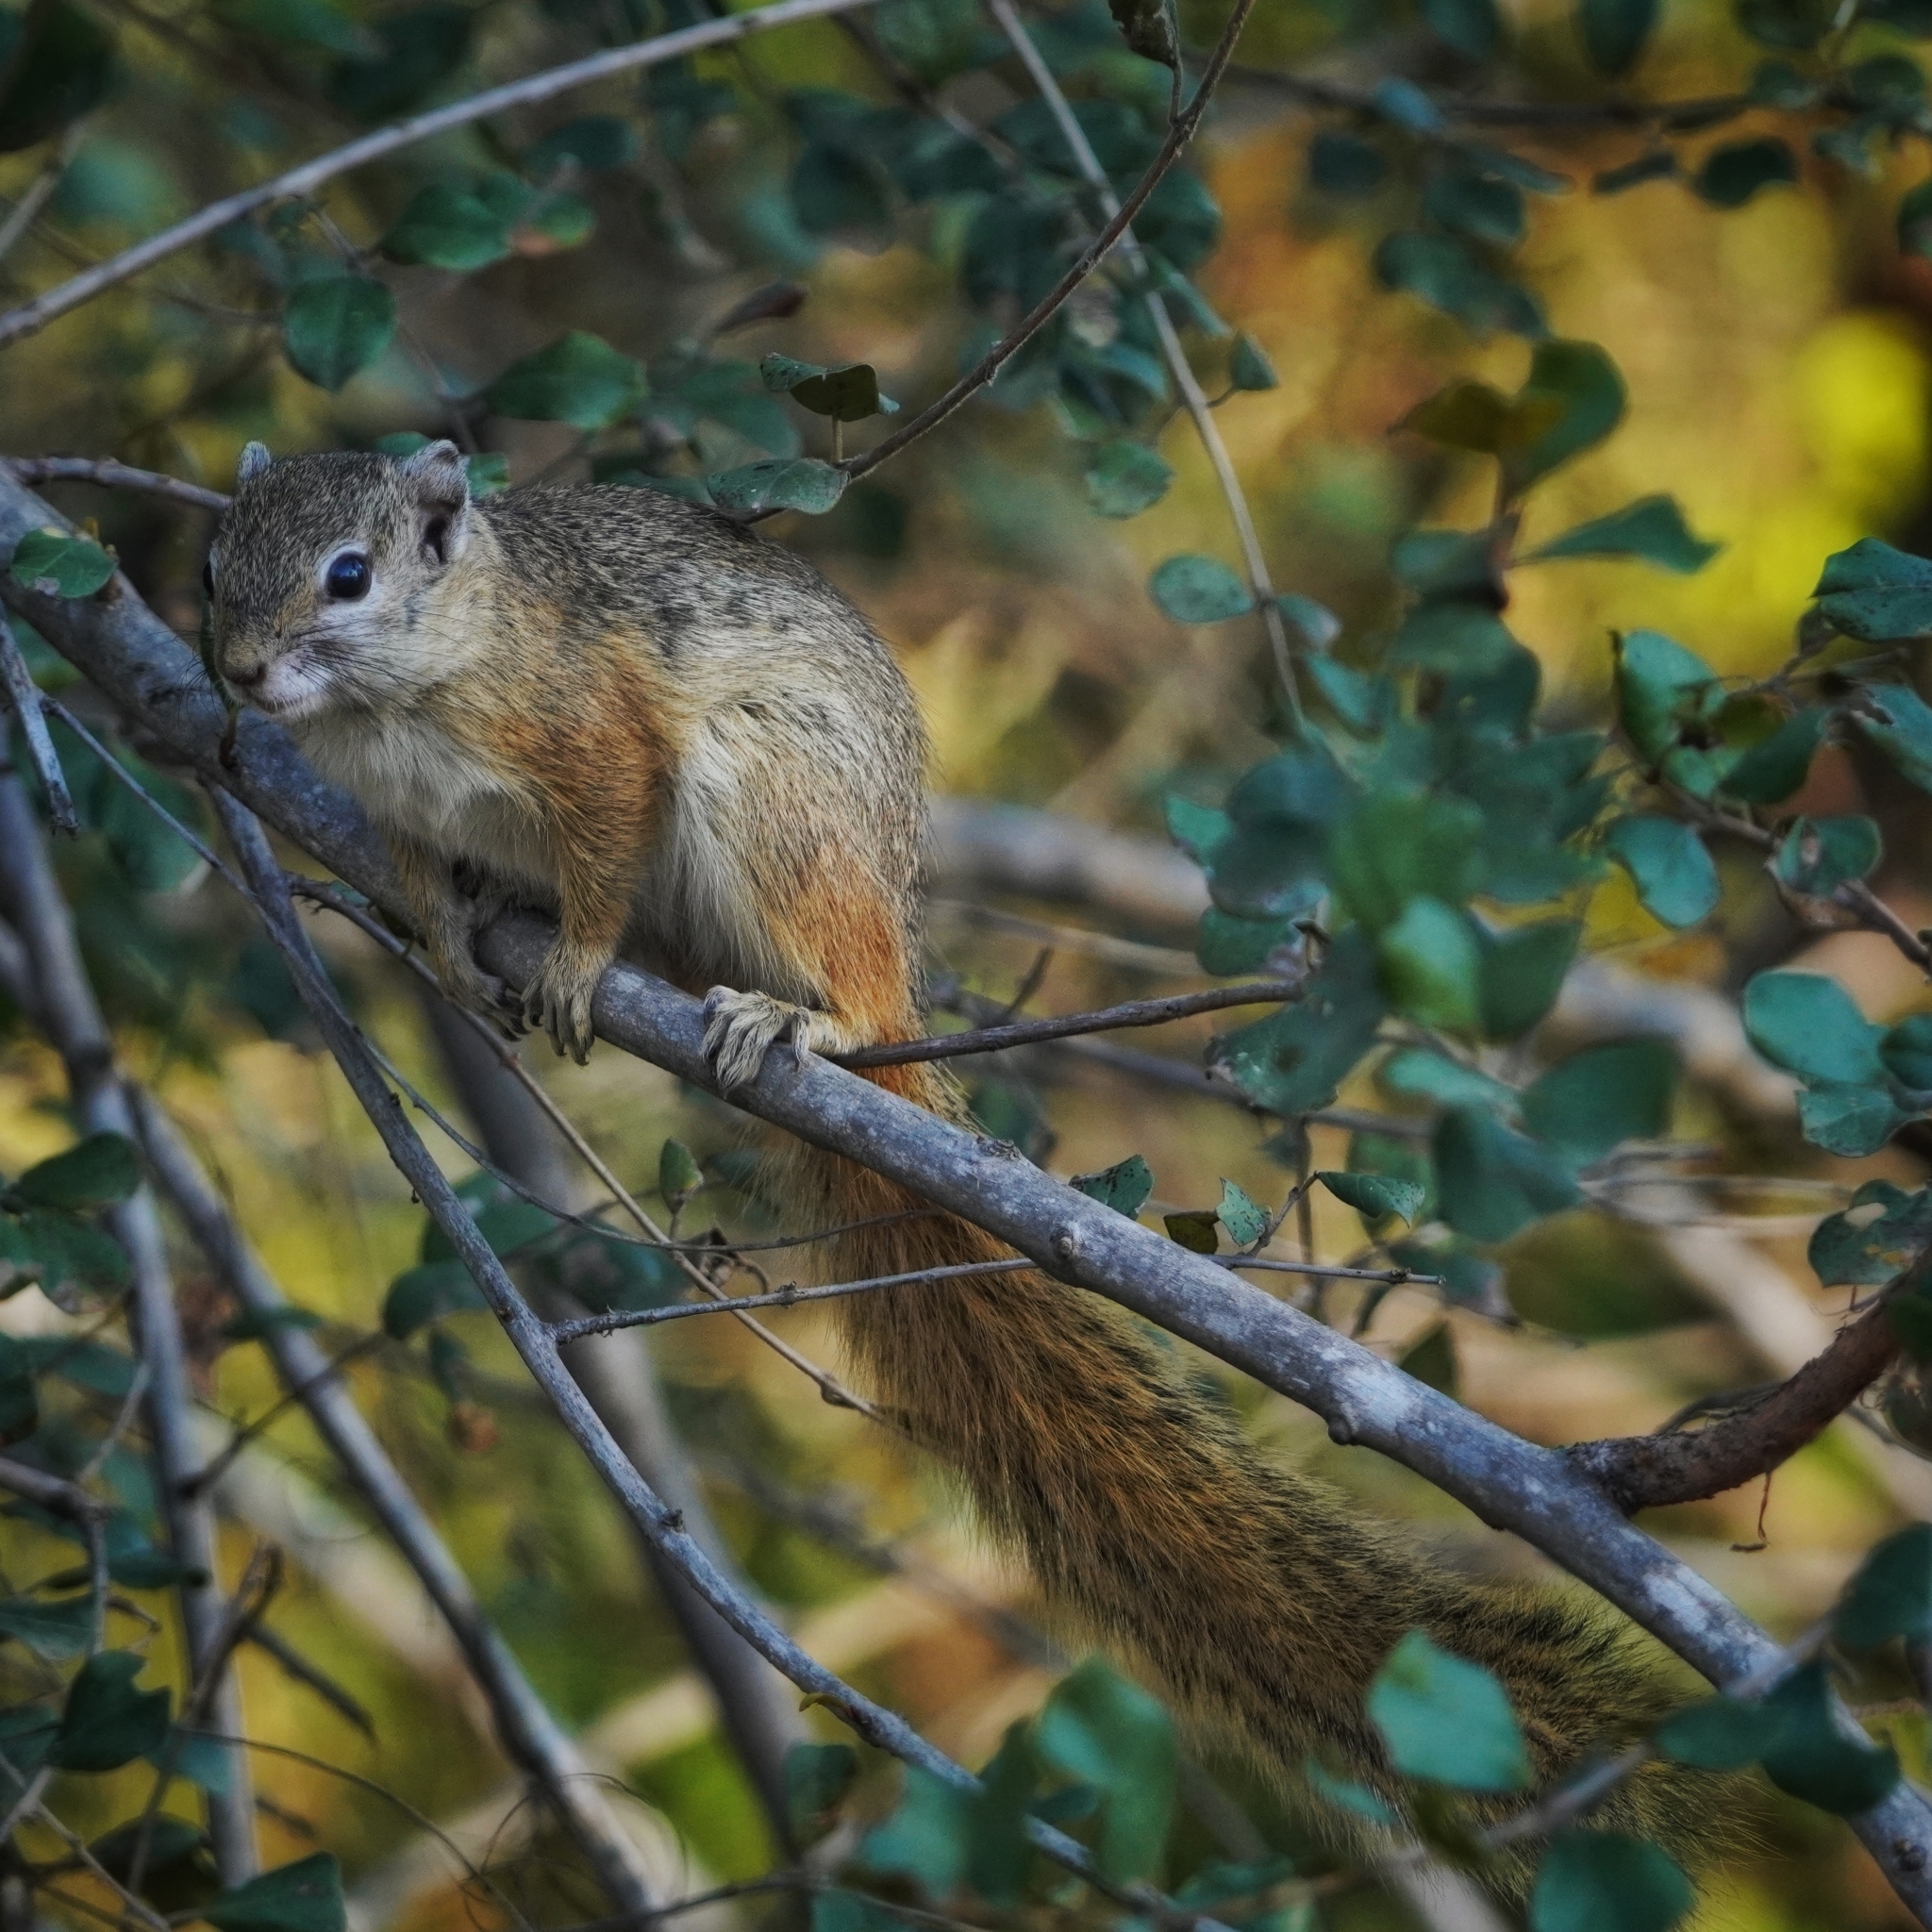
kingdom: Animalia
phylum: Chordata
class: Mammalia
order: Rodentia
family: Sciuridae
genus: Paraxerus
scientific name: Paraxerus cepapi
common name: Smith's bush squirrel
